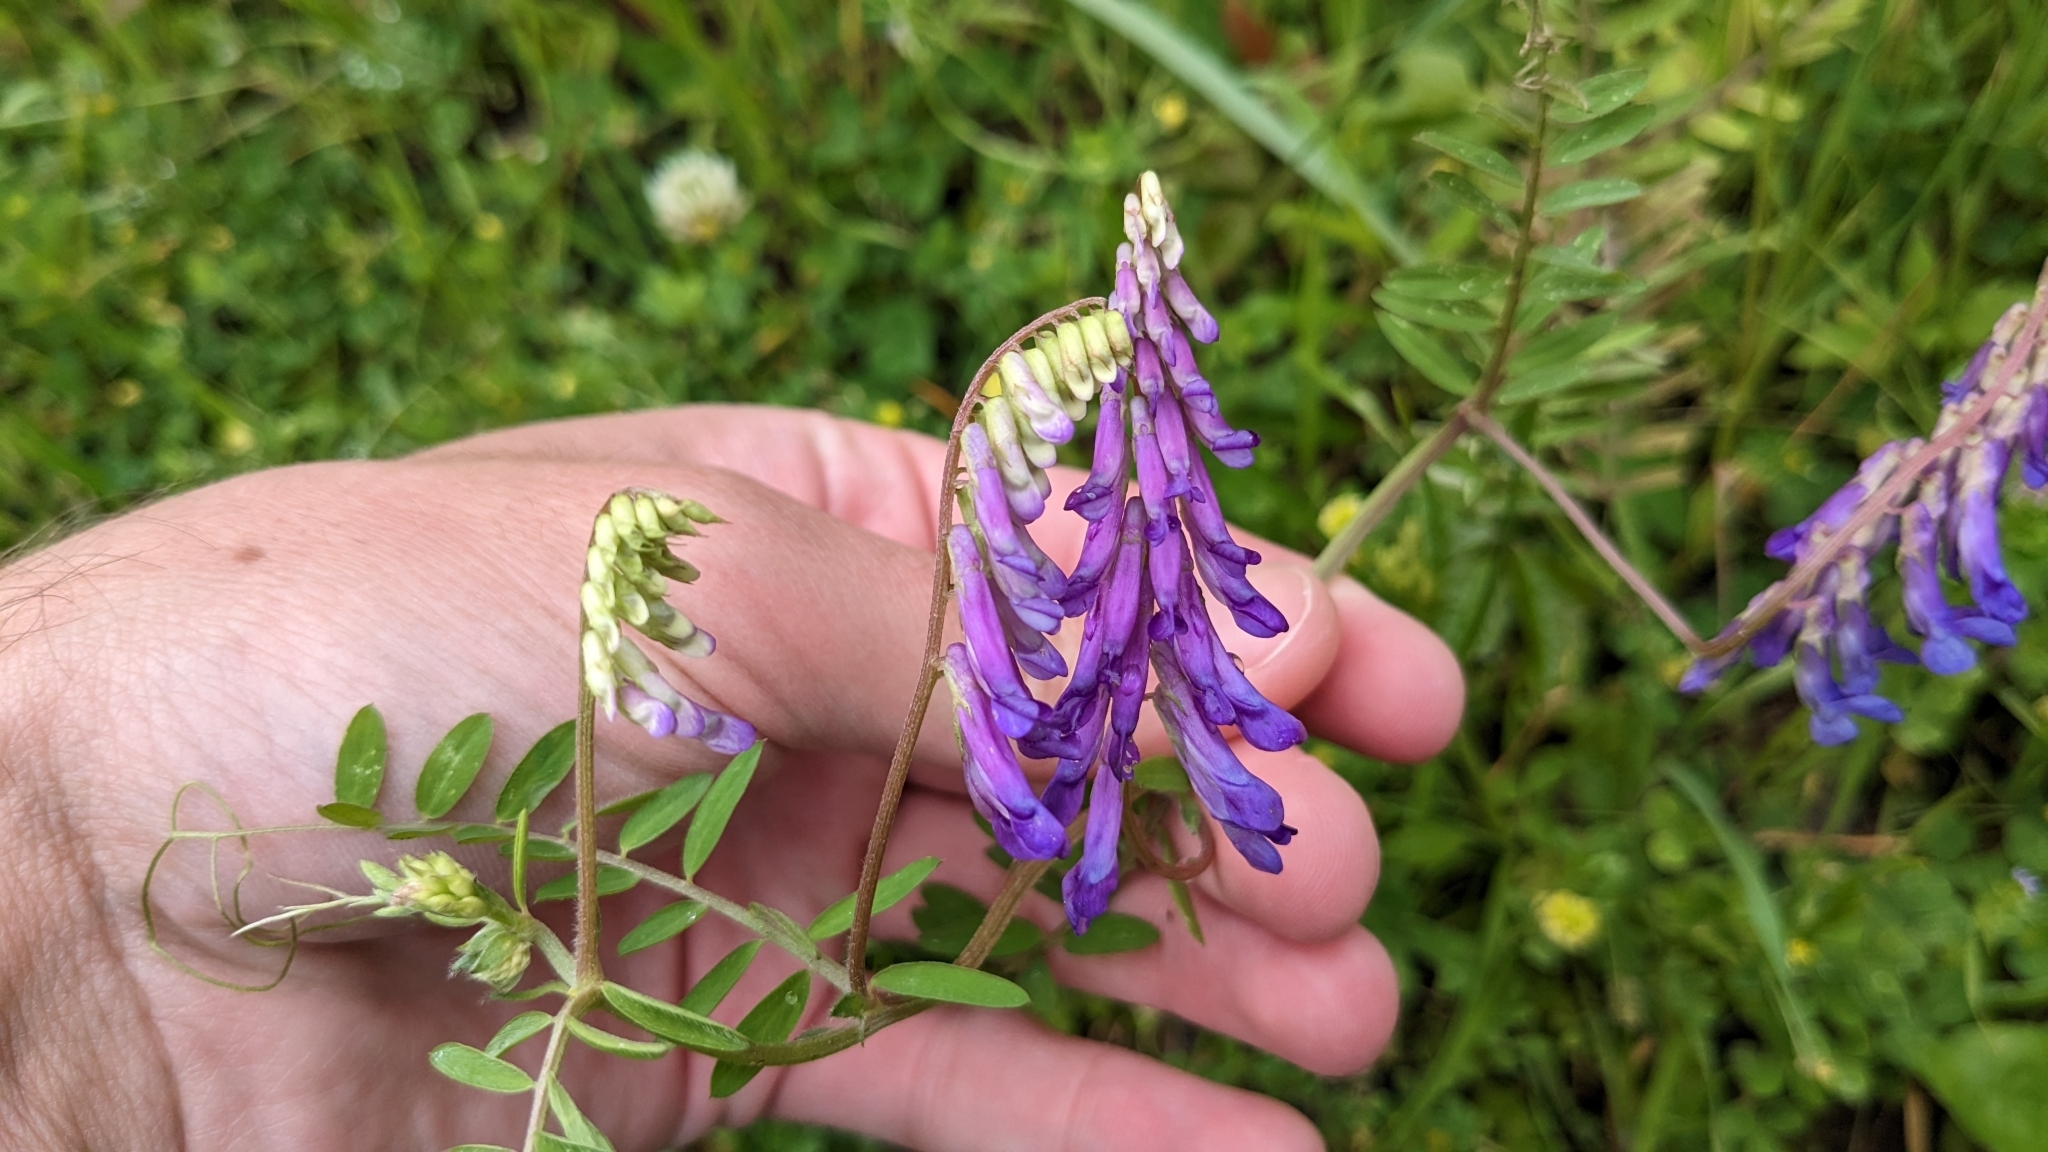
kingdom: Plantae
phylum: Tracheophyta
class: Magnoliopsida
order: Fabales
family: Fabaceae
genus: Vicia
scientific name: Vicia villosa
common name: Fodder vetch
